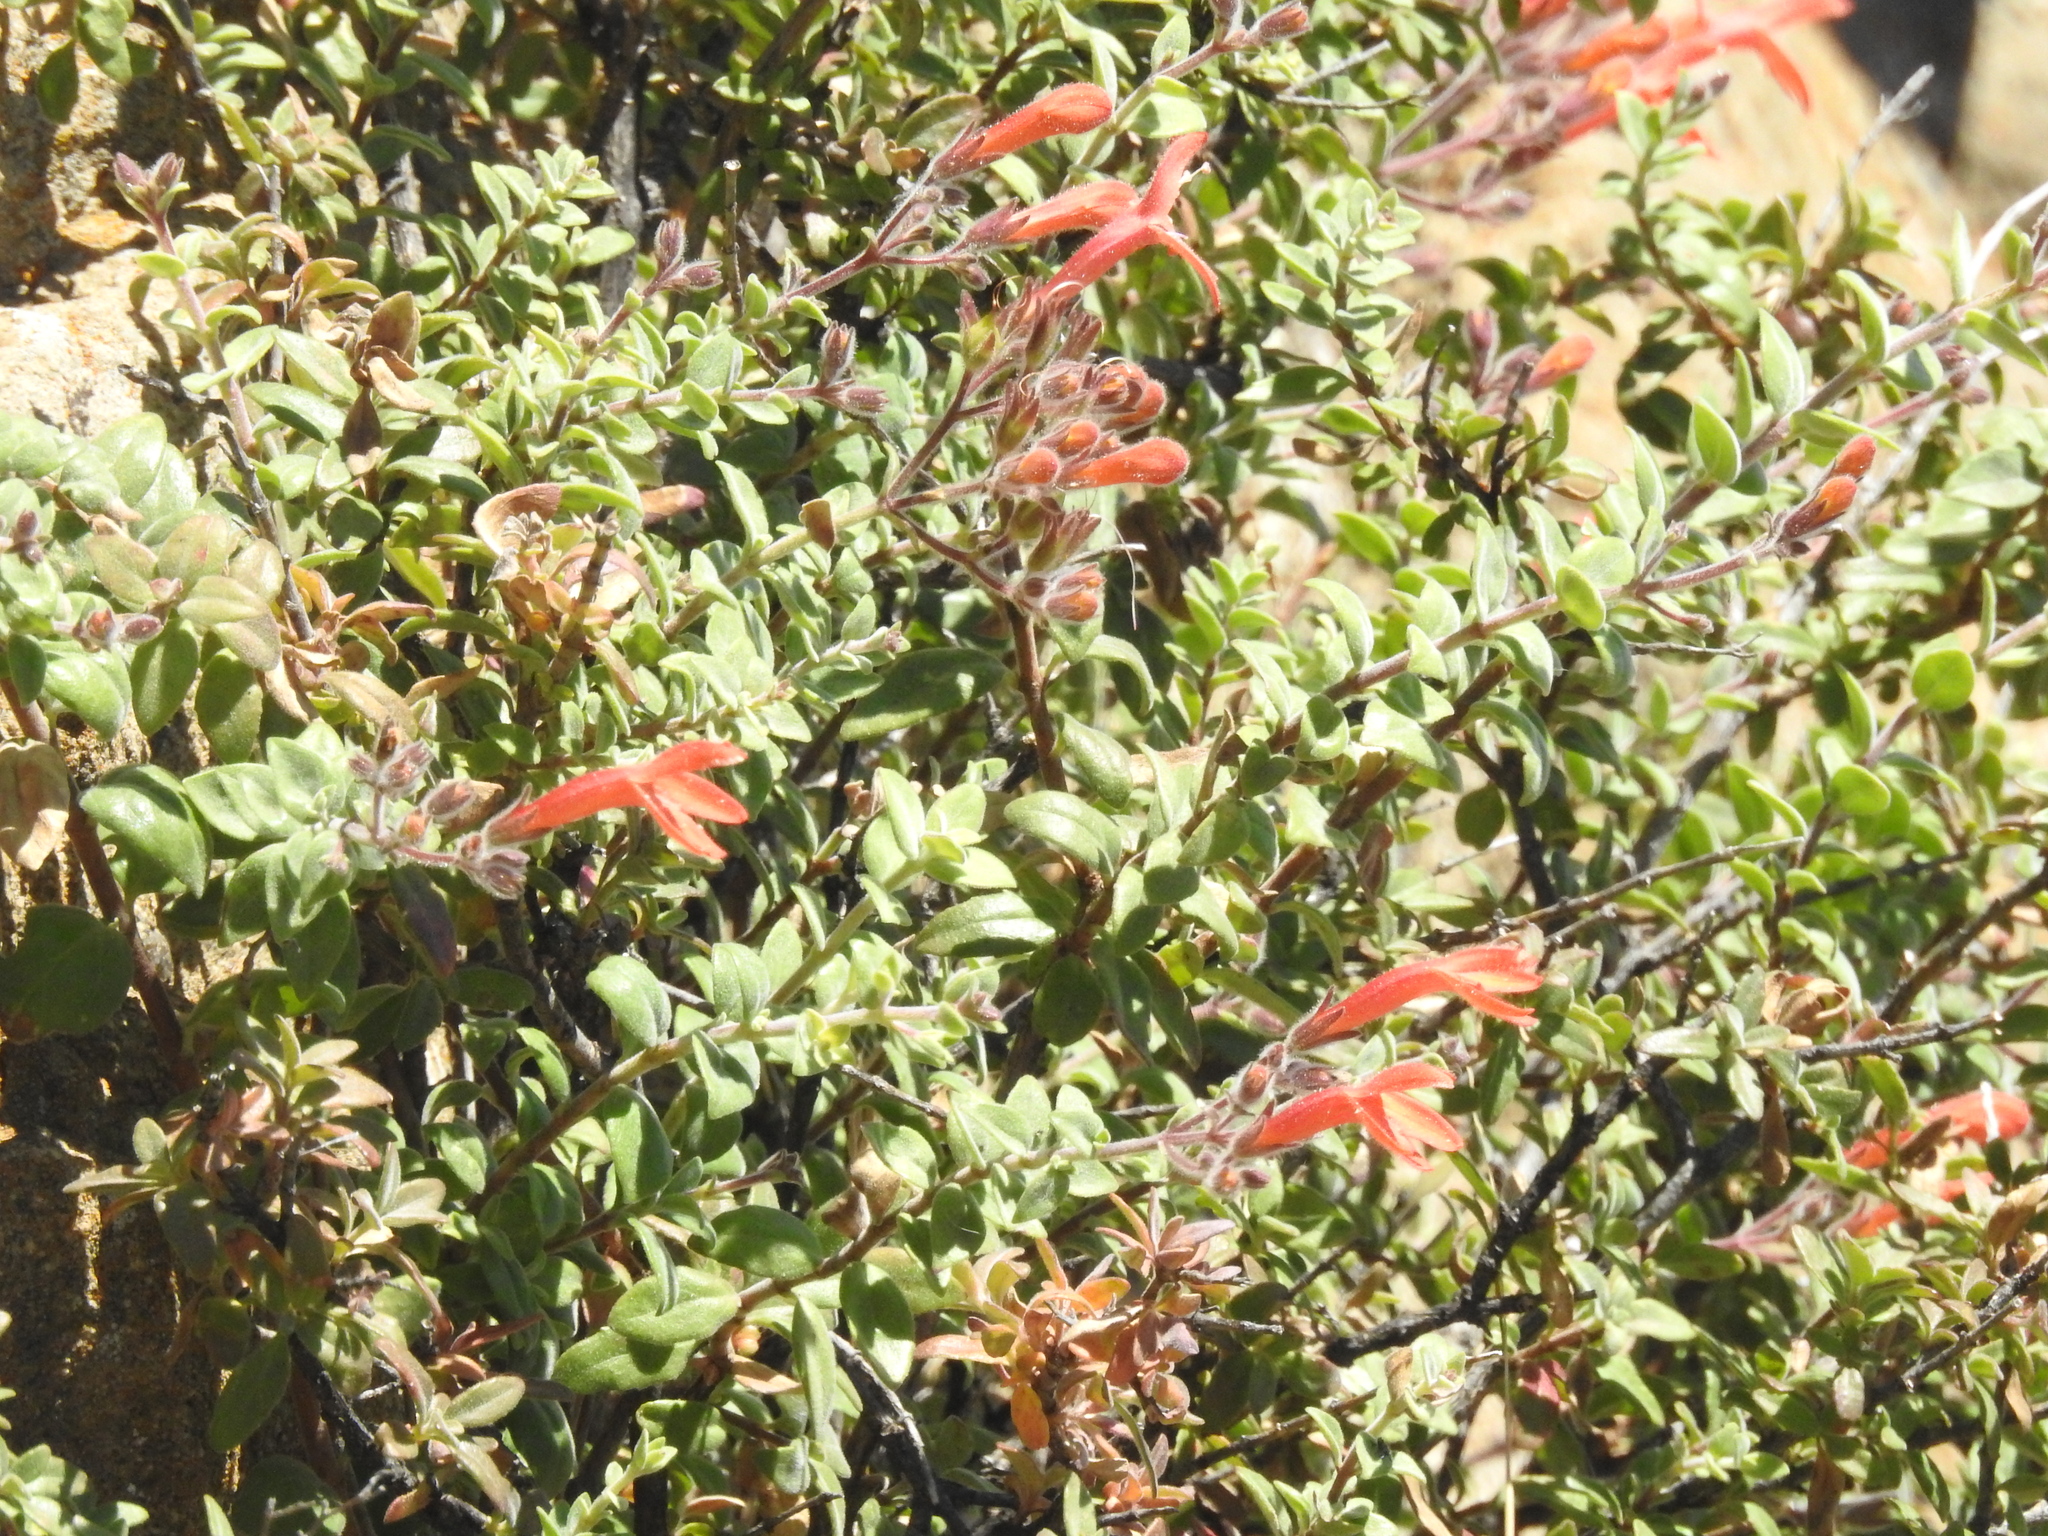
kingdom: Plantae
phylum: Tracheophyta
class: Magnoliopsida
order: Lamiales
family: Plantaginaceae
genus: Keckiella
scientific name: Keckiella corymbosa
